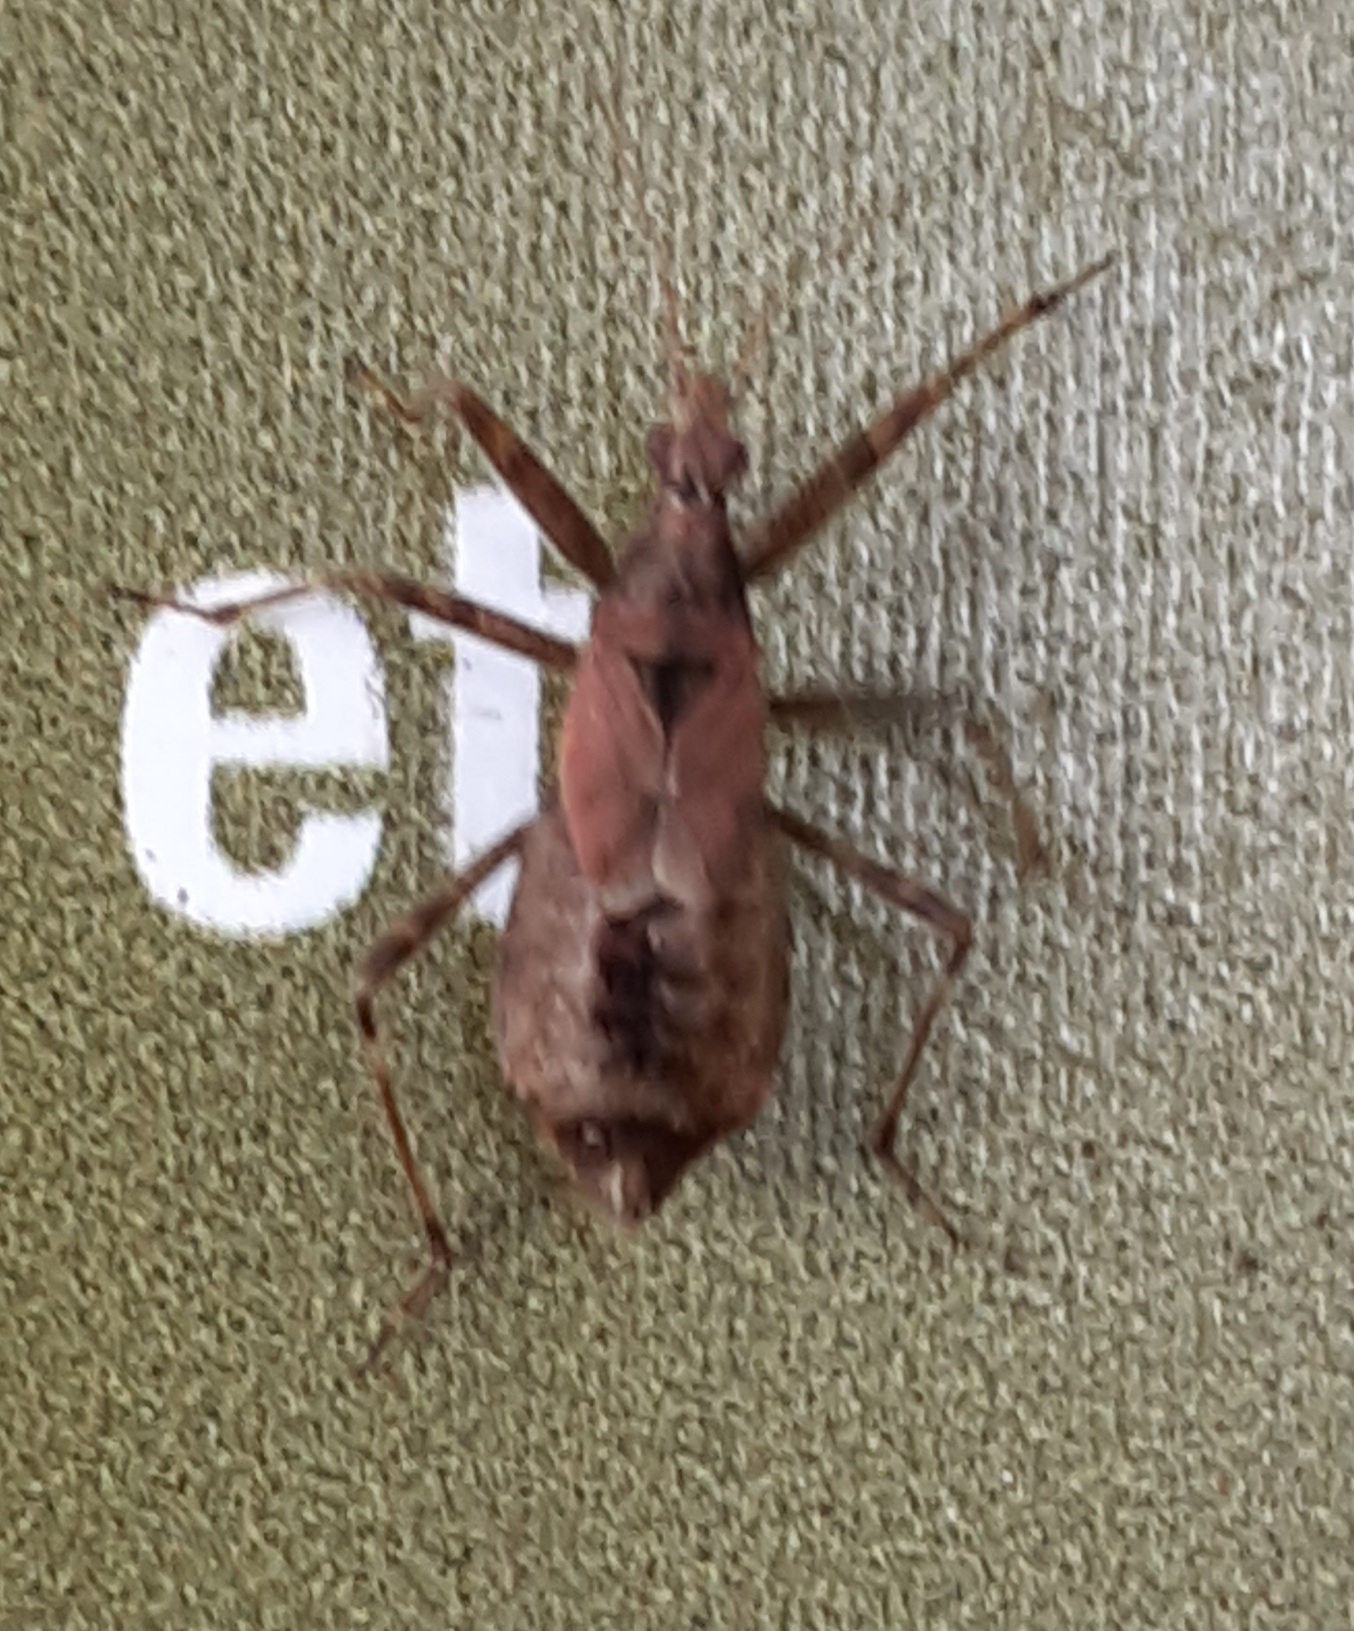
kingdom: Animalia
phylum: Arthropoda
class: Insecta
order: Hemiptera
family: Nabidae
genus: Himacerus
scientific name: Himacerus apterus
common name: Tree damsel bug
